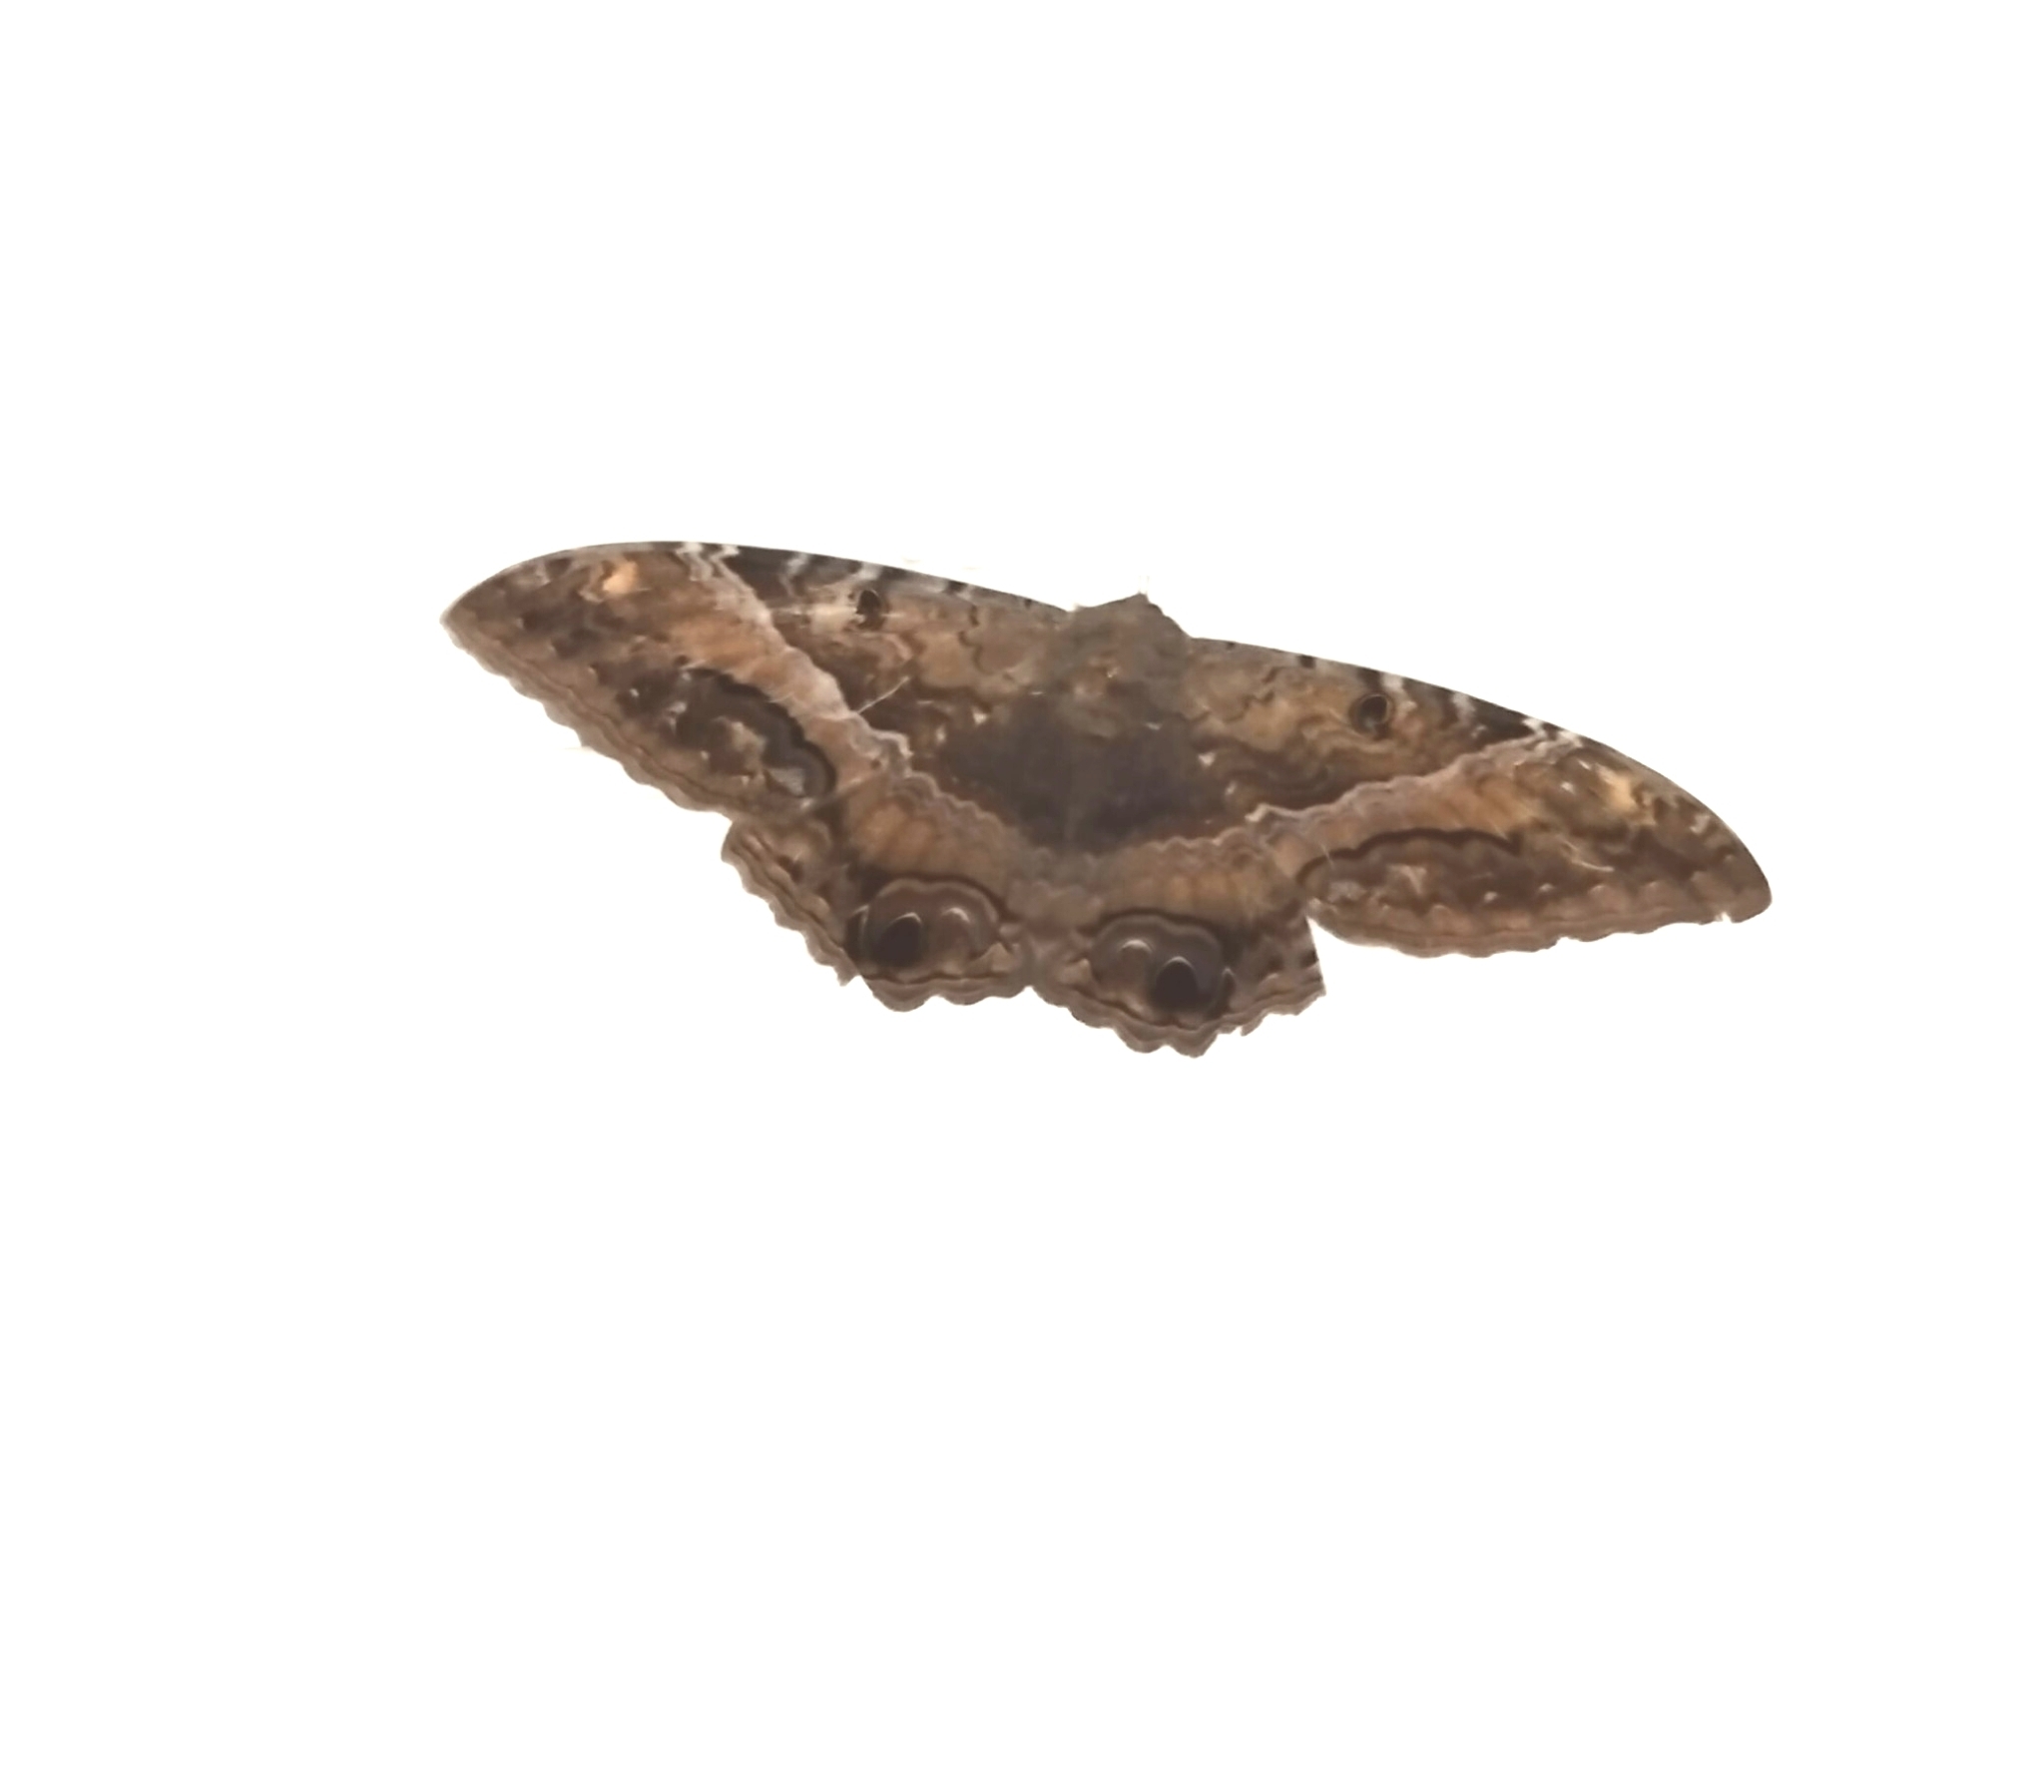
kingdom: Animalia
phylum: Arthropoda
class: Insecta
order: Lepidoptera
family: Erebidae
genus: Ascalapha
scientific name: Ascalapha odorata
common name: Black witch
